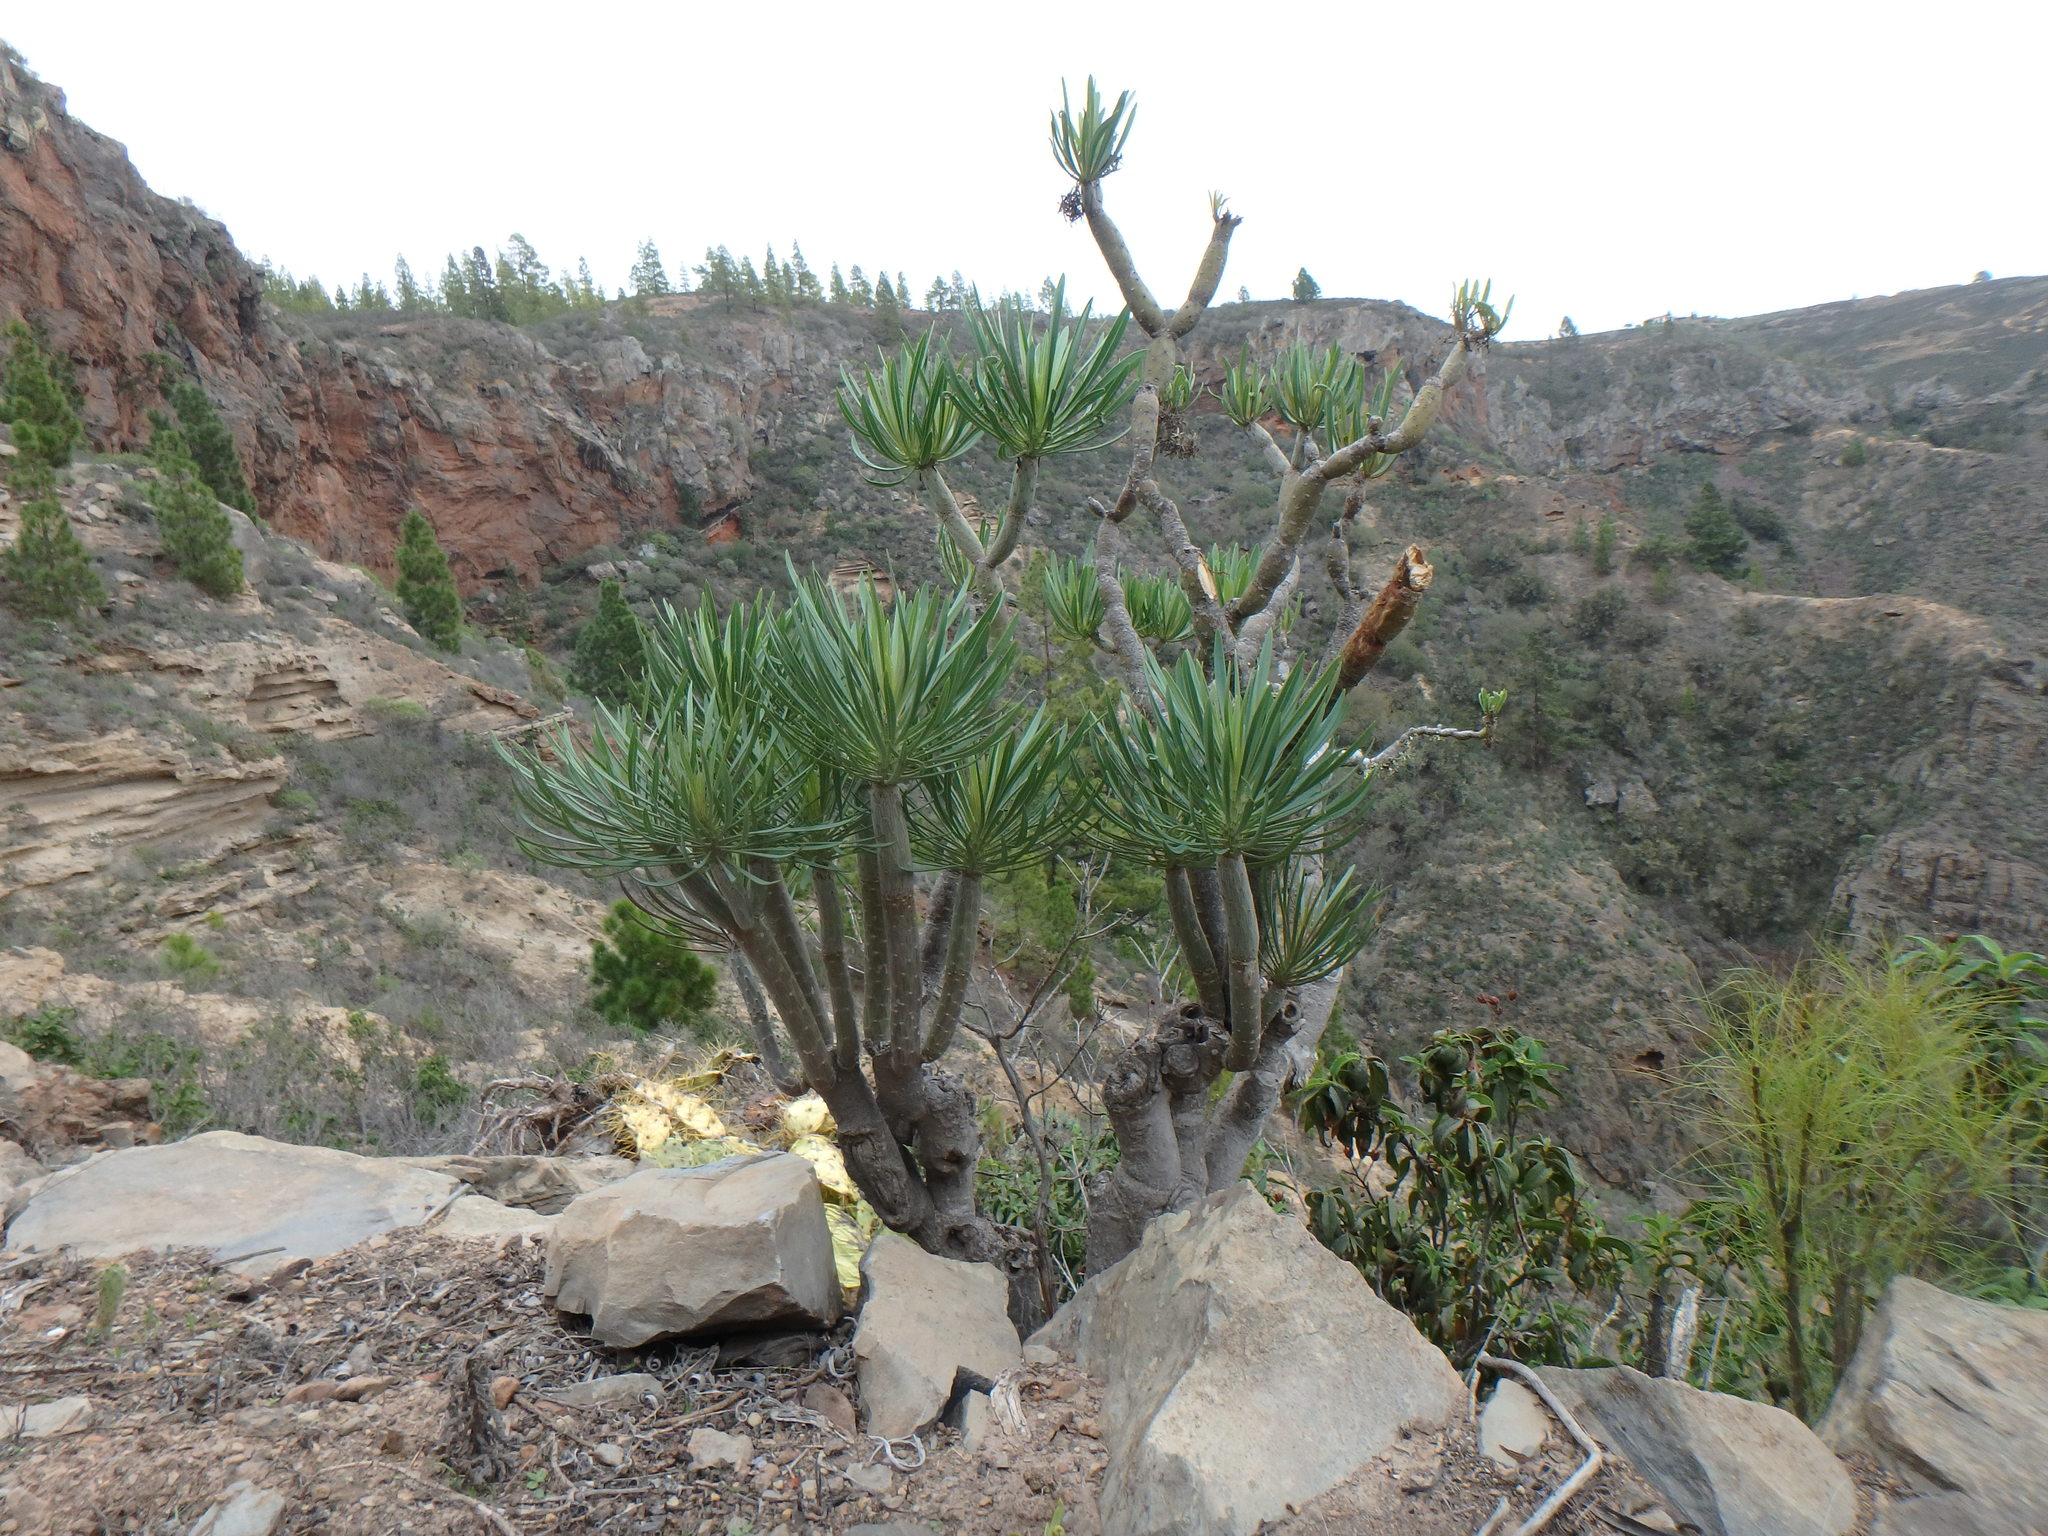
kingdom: Plantae
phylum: Tracheophyta
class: Magnoliopsida
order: Asterales
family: Asteraceae
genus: Kleinia
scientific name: Kleinia neriifolia
